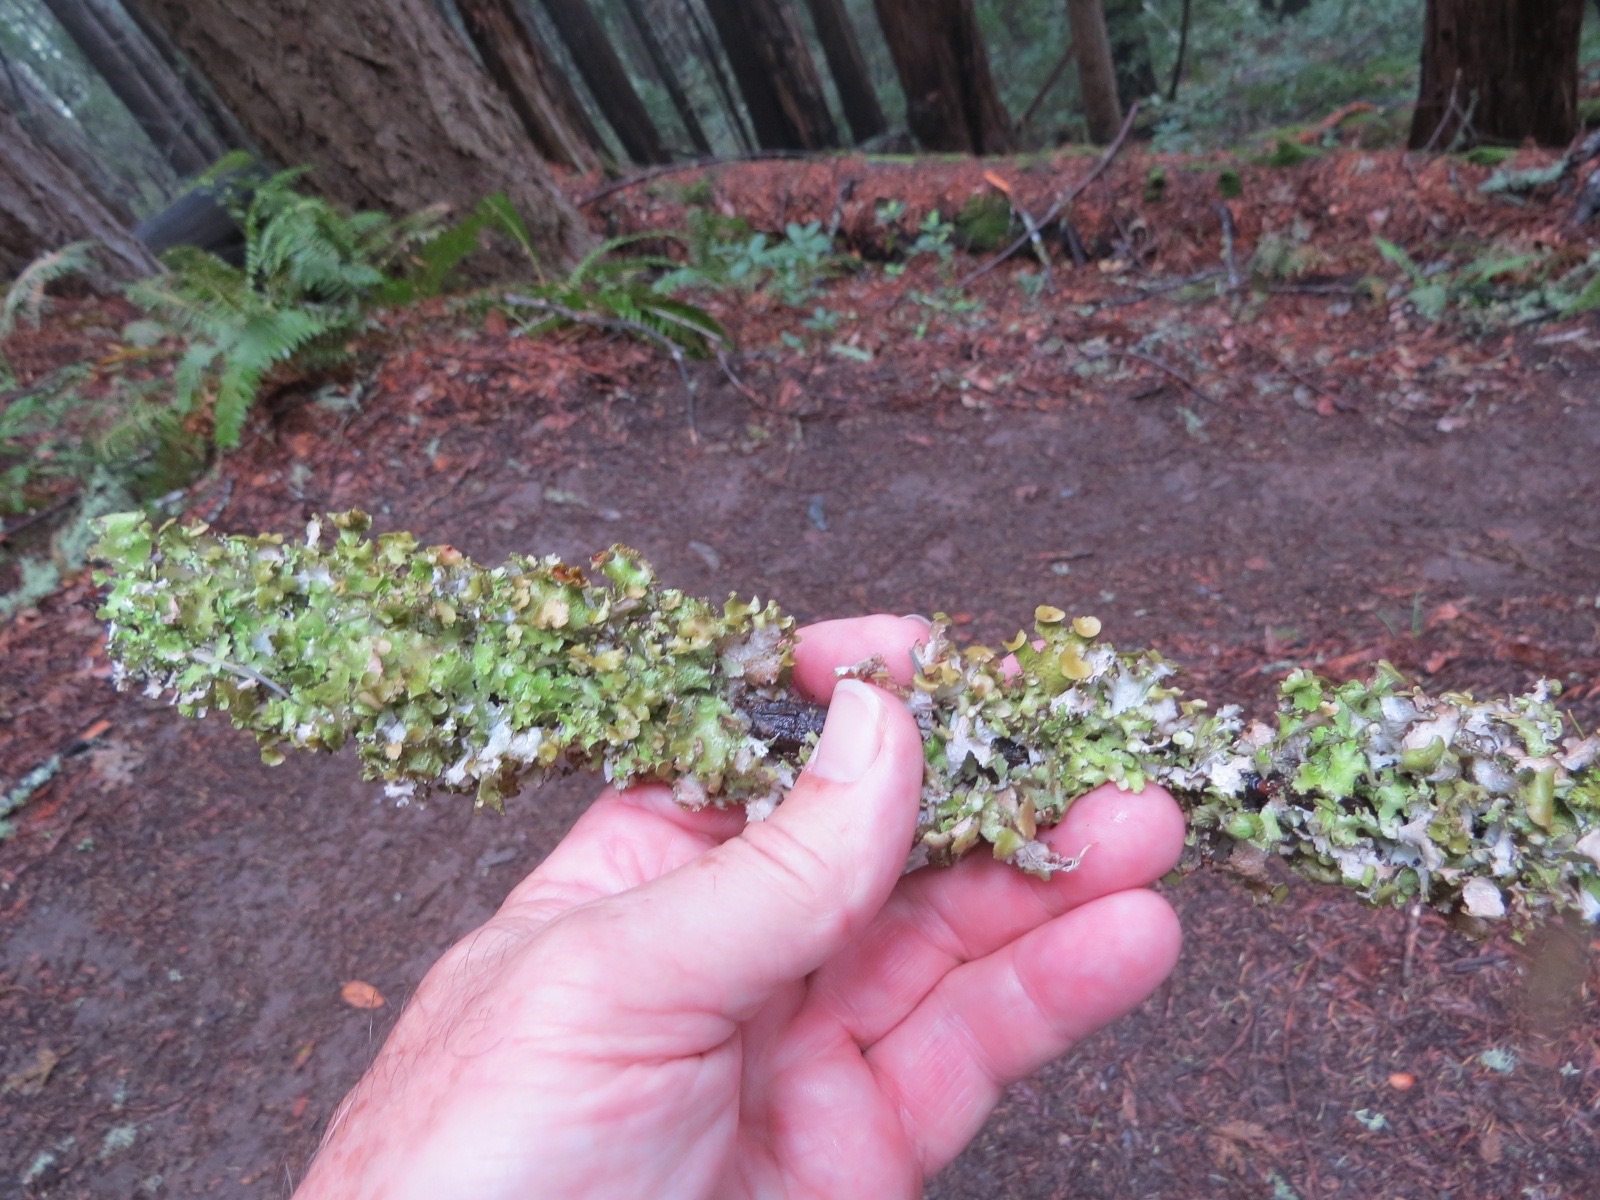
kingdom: Fungi
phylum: Ascomycota
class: Lecanoromycetes
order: Lecanorales
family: Parmeliaceae
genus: Nephromopsis
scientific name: Nephromopsis orbata
